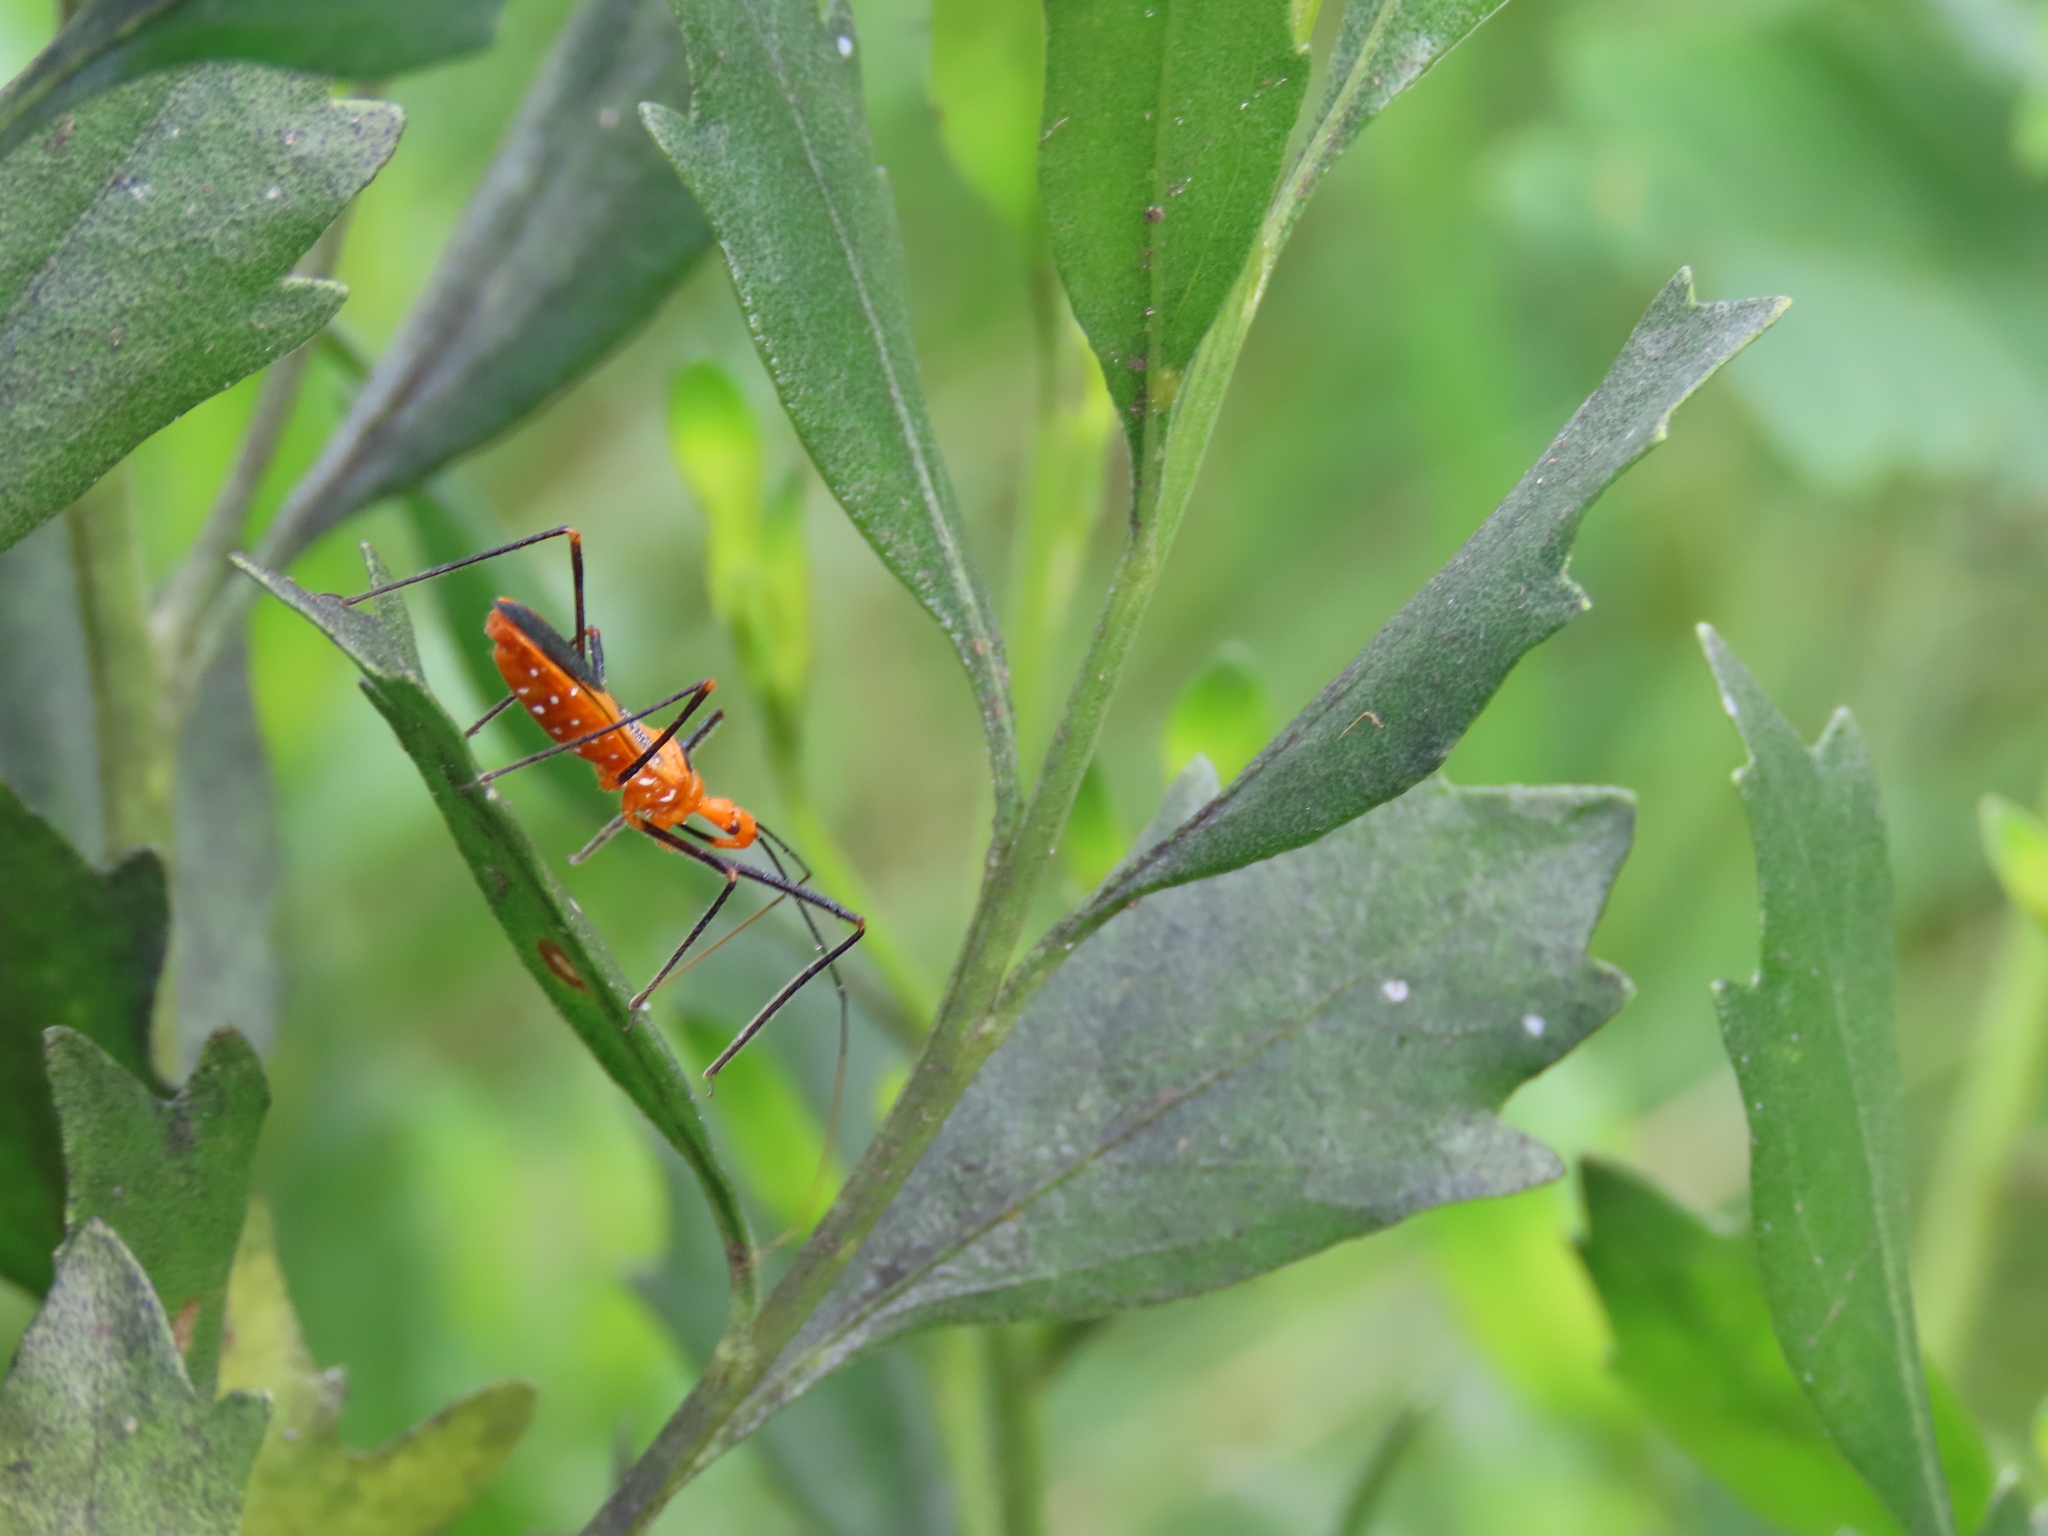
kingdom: Animalia
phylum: Arthropoda
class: Insecta
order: Hemiptera
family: Reduviidae
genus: Zelus
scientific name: Zelus longipes
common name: Milkweed assassin bug
